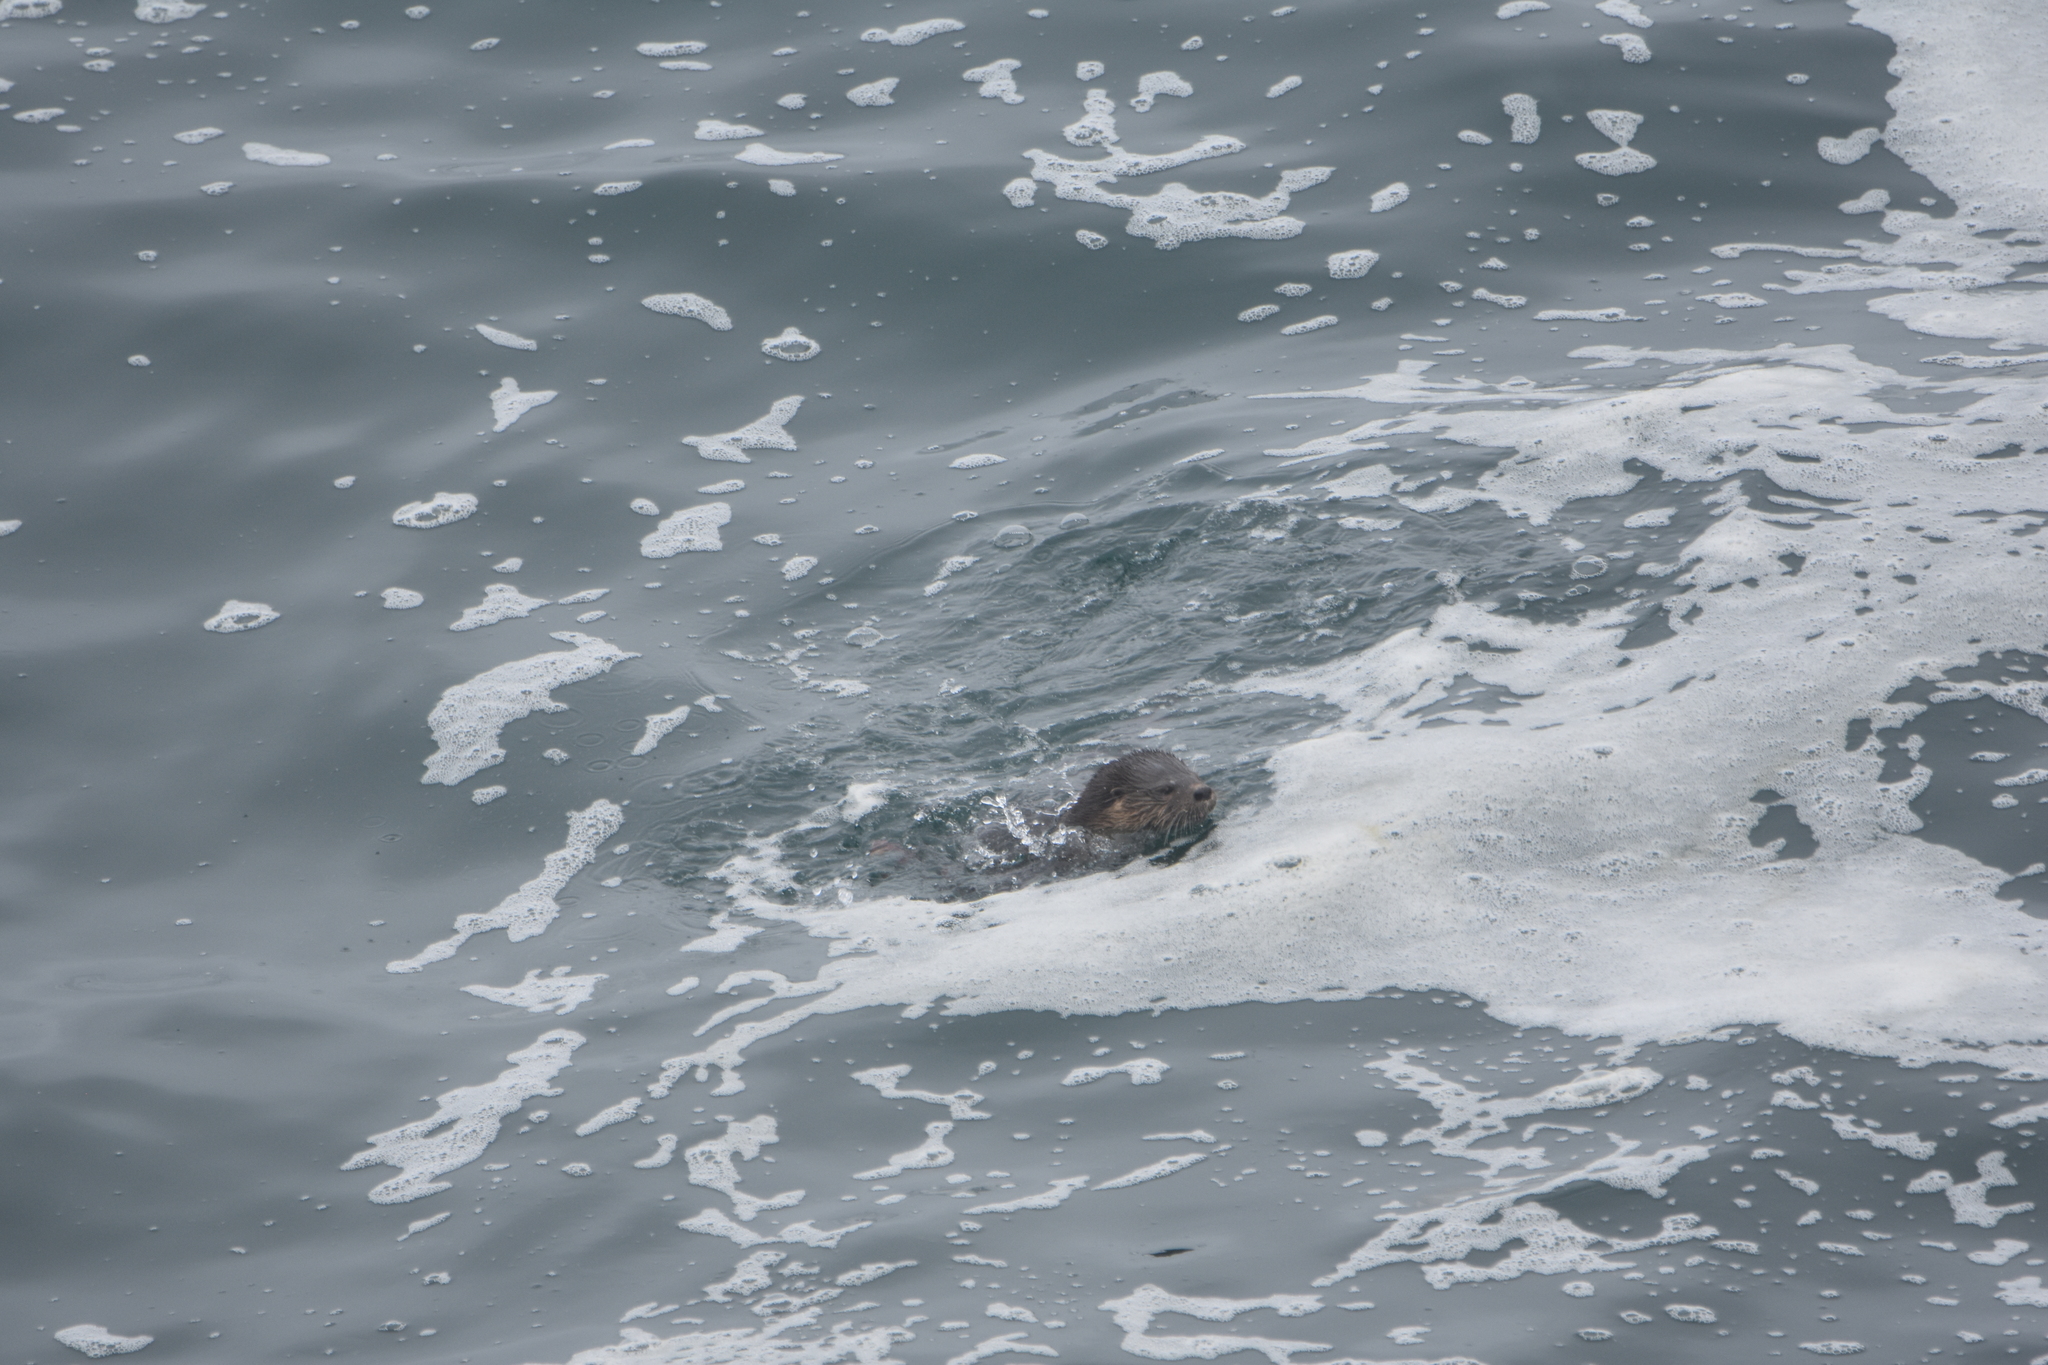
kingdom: Animalia
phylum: Chordata
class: Mammalia
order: Carnivora
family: Mustelidae
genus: Lontra
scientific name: Lontra felina
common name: Marine otter
